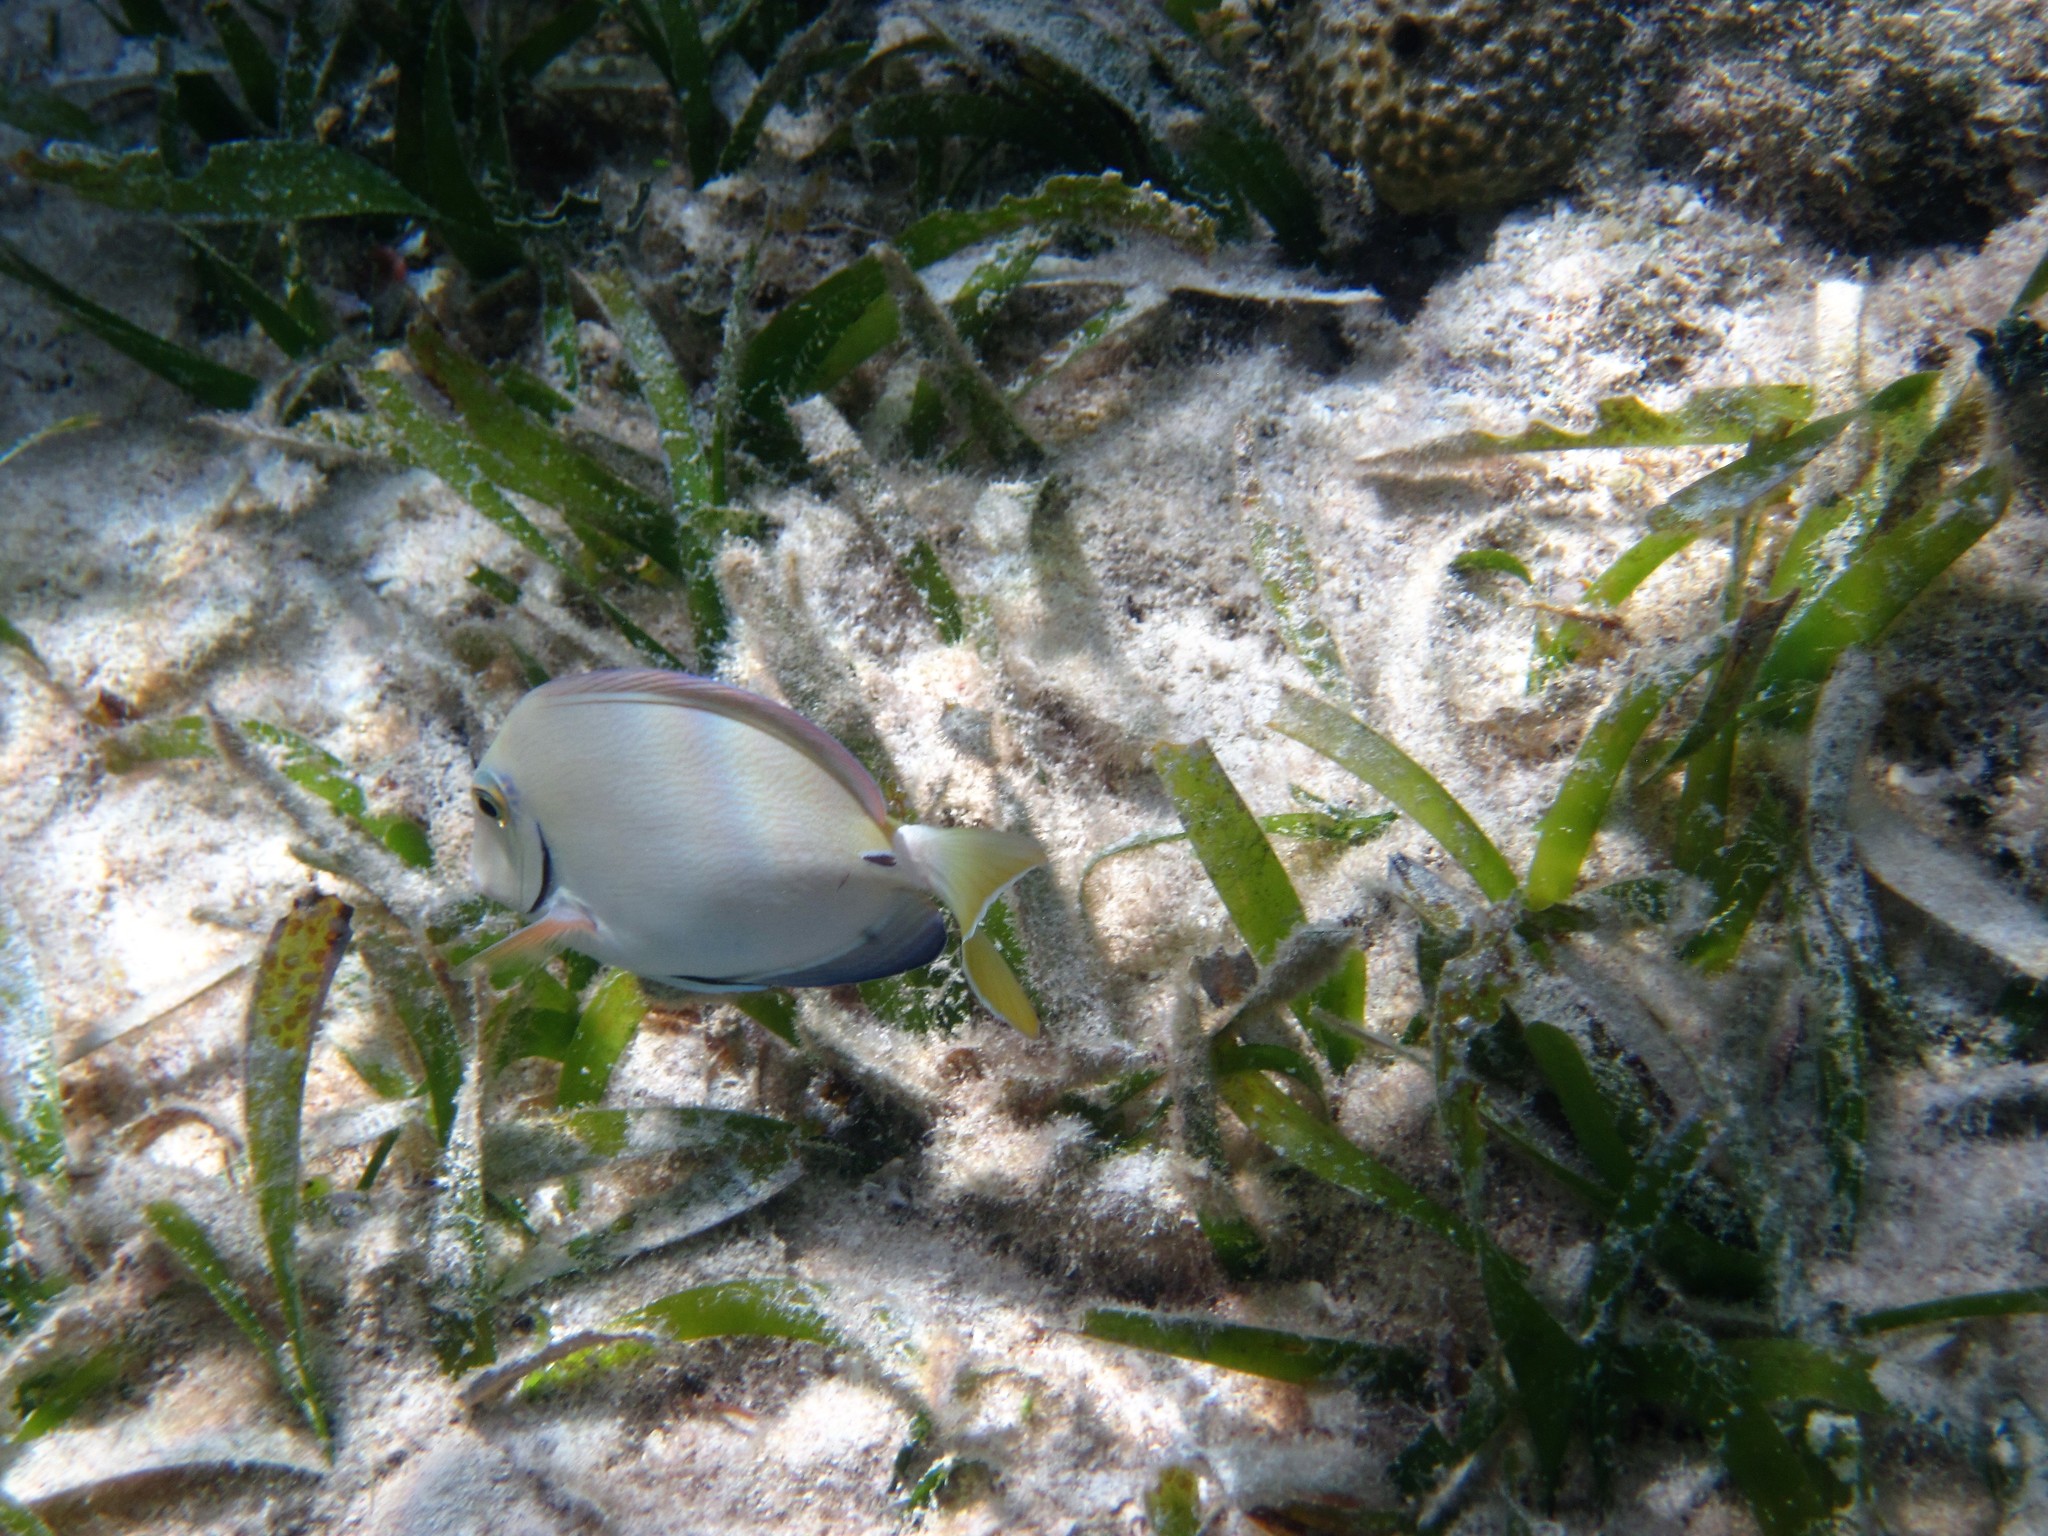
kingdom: Animalia
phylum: Chordata
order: Perciformes
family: Acanthuridae
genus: Acanthurus
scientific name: Acanthurus bahianus
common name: Ocean surgeon
